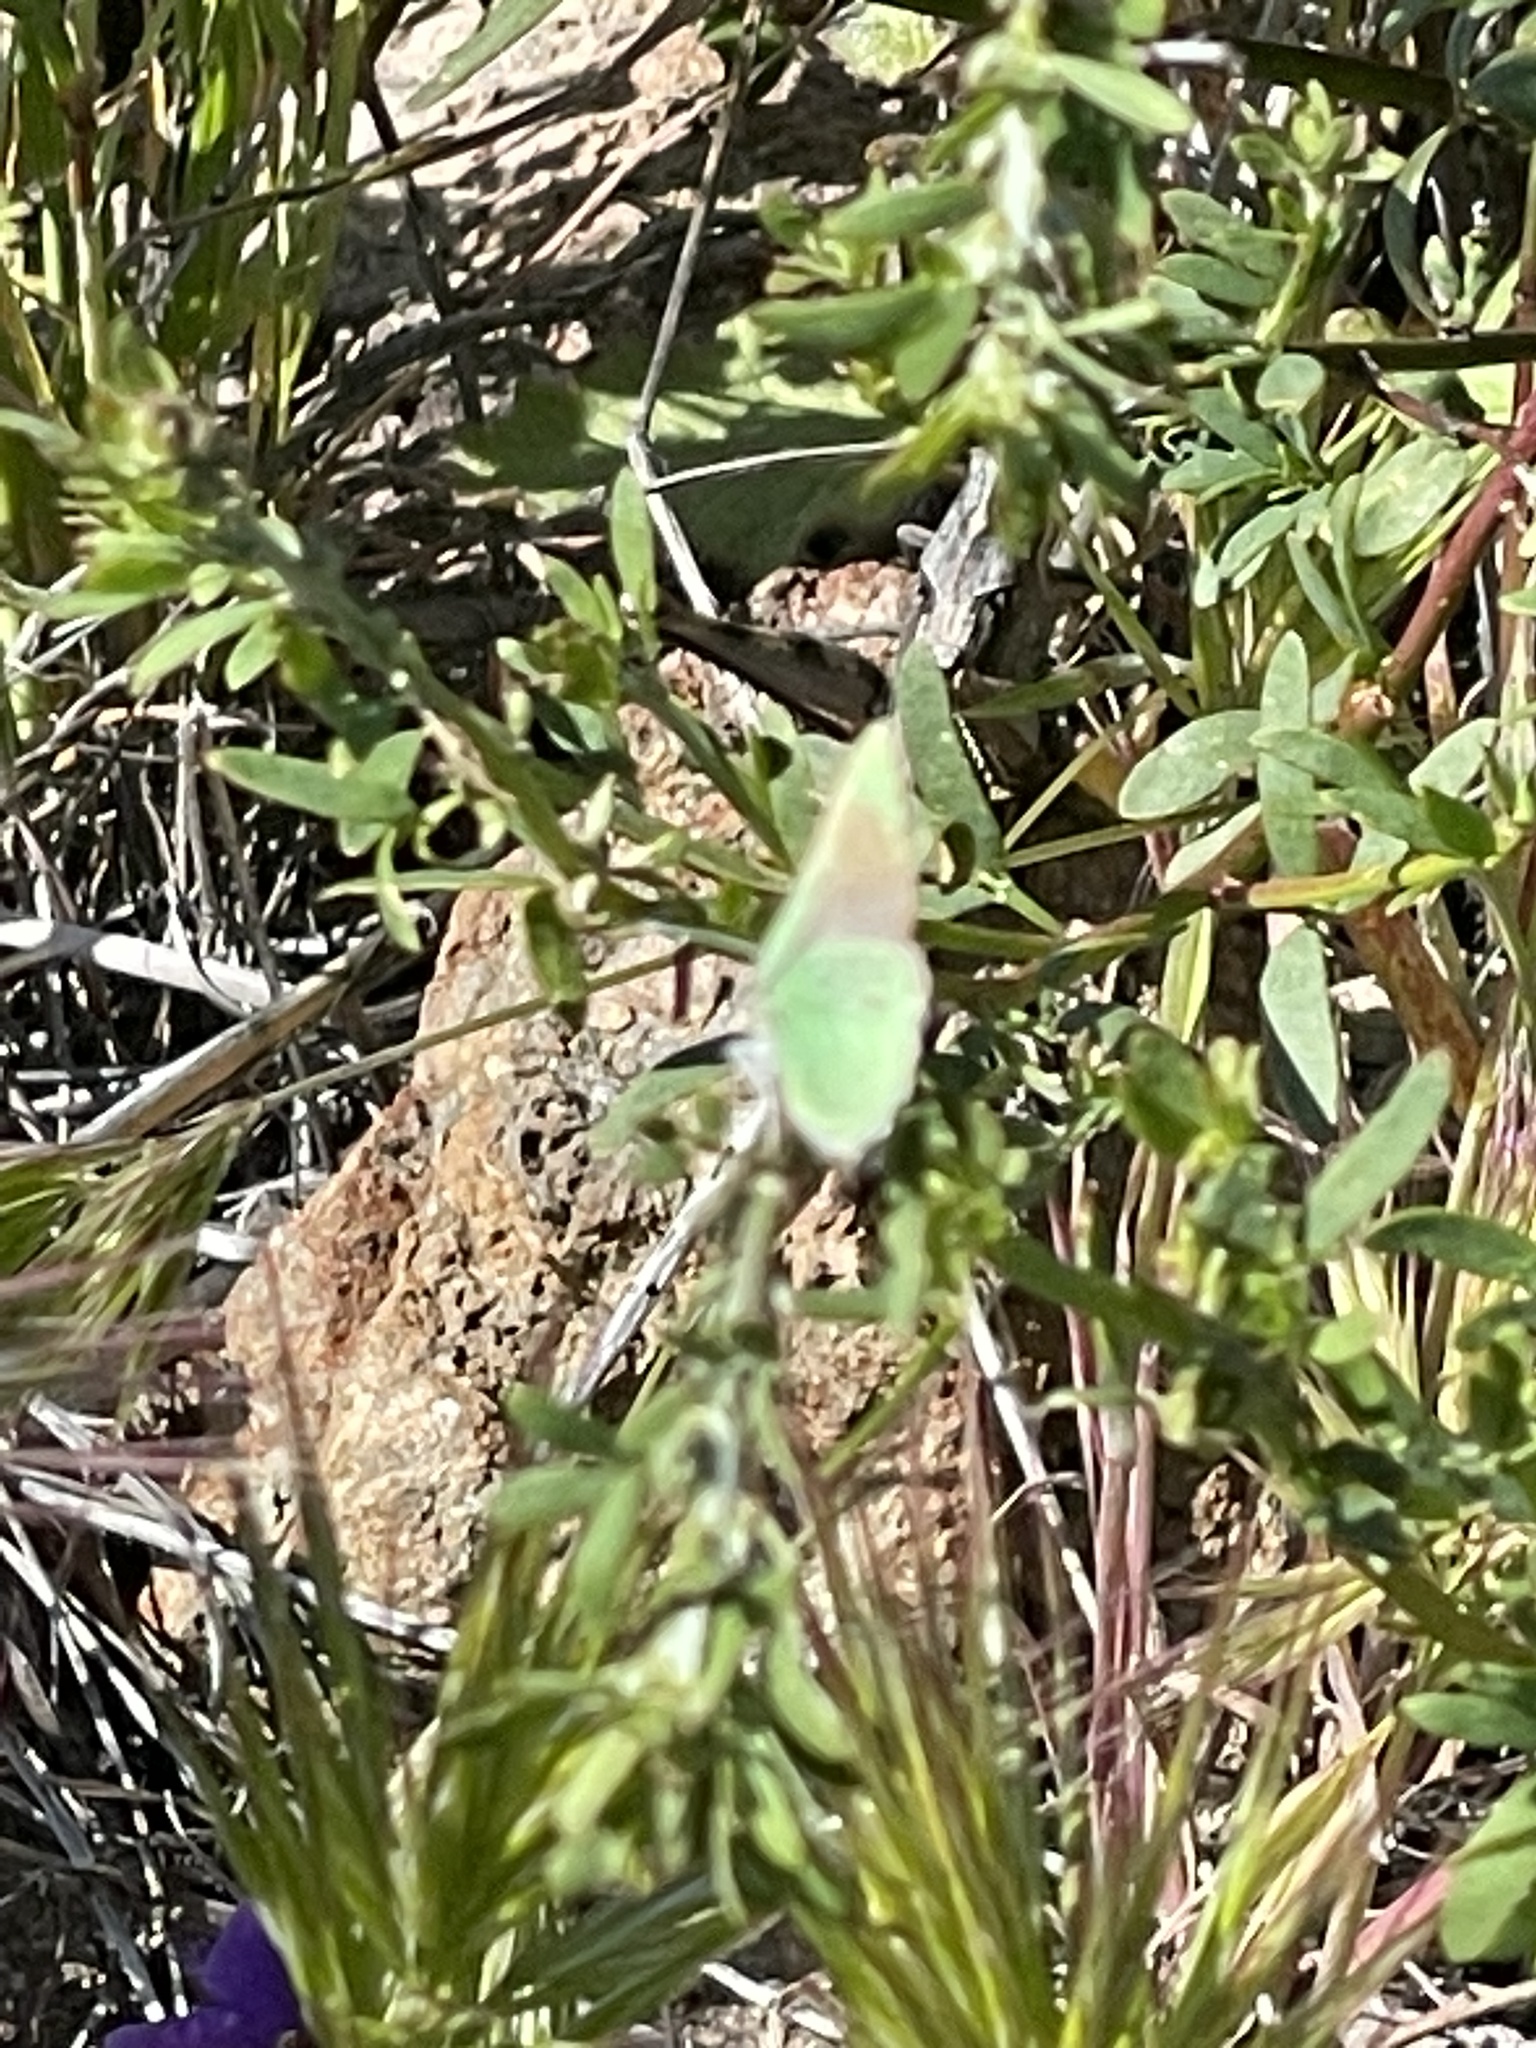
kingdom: Animalia
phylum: Arthropoda
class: Insecta
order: Lepidoptera
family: Lycaenidae
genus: Callophrys
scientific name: Callophrys dumetorum
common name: Bramble hairstreak
